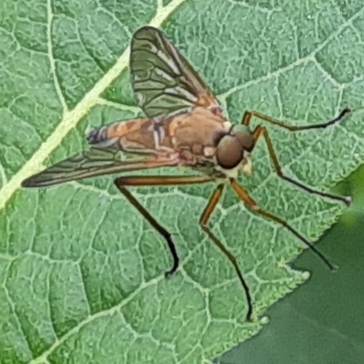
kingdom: Animalia
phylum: Arthropoda
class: Insecta
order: Diptera
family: Rhagionidae
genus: Rhagio
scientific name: Rhagio tringaria
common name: Marsh snipefly
